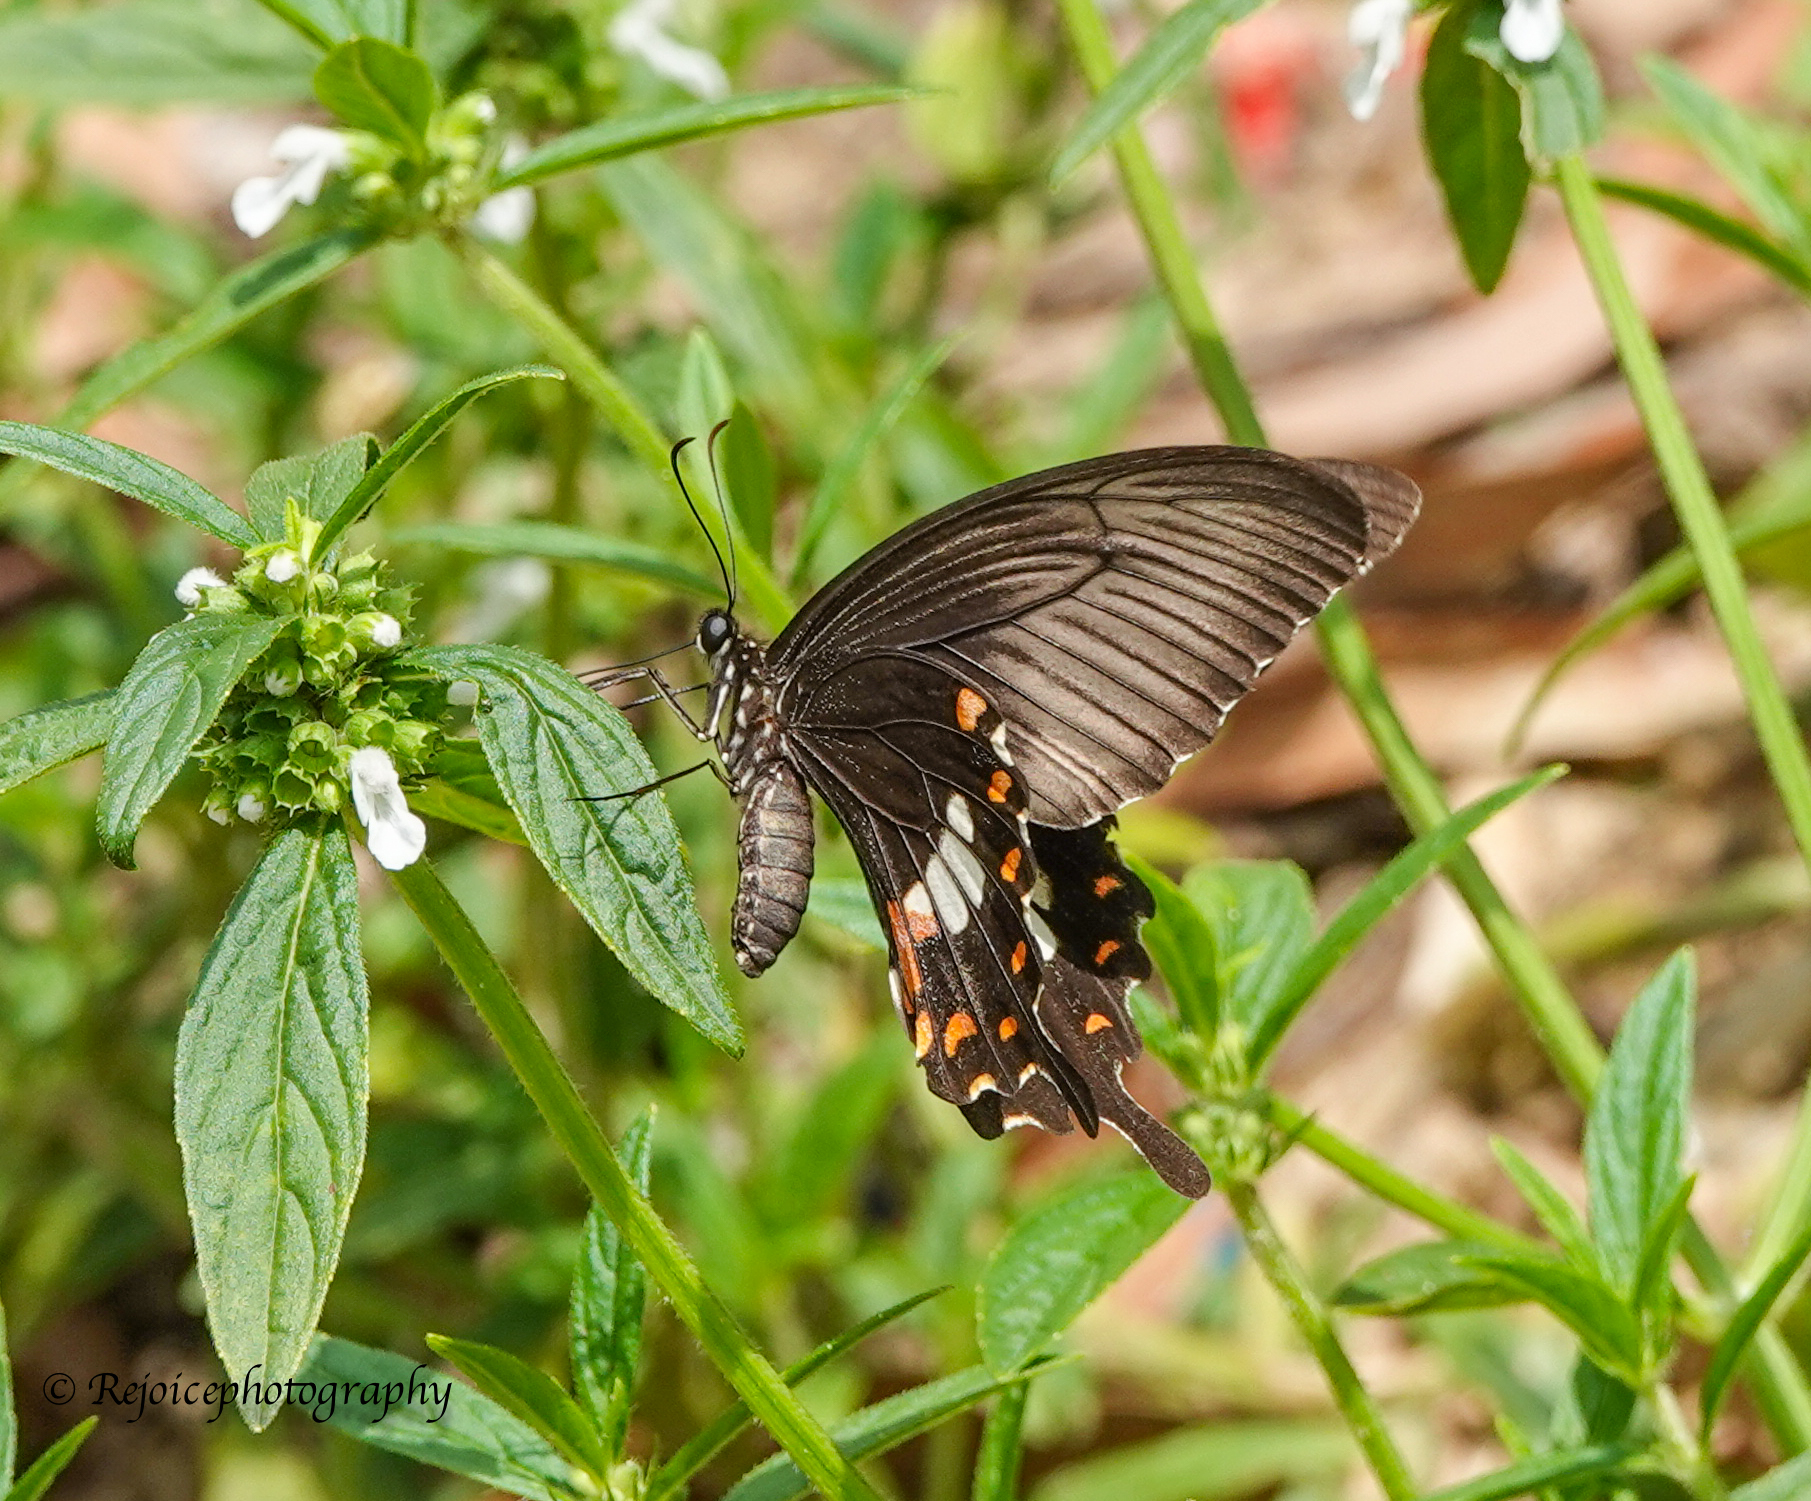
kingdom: Animalia
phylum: Arthropoda
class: Insecta
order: Lepidoptera
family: Papilionidae
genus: Papilio
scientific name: Papilio polytes
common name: Common mormon
